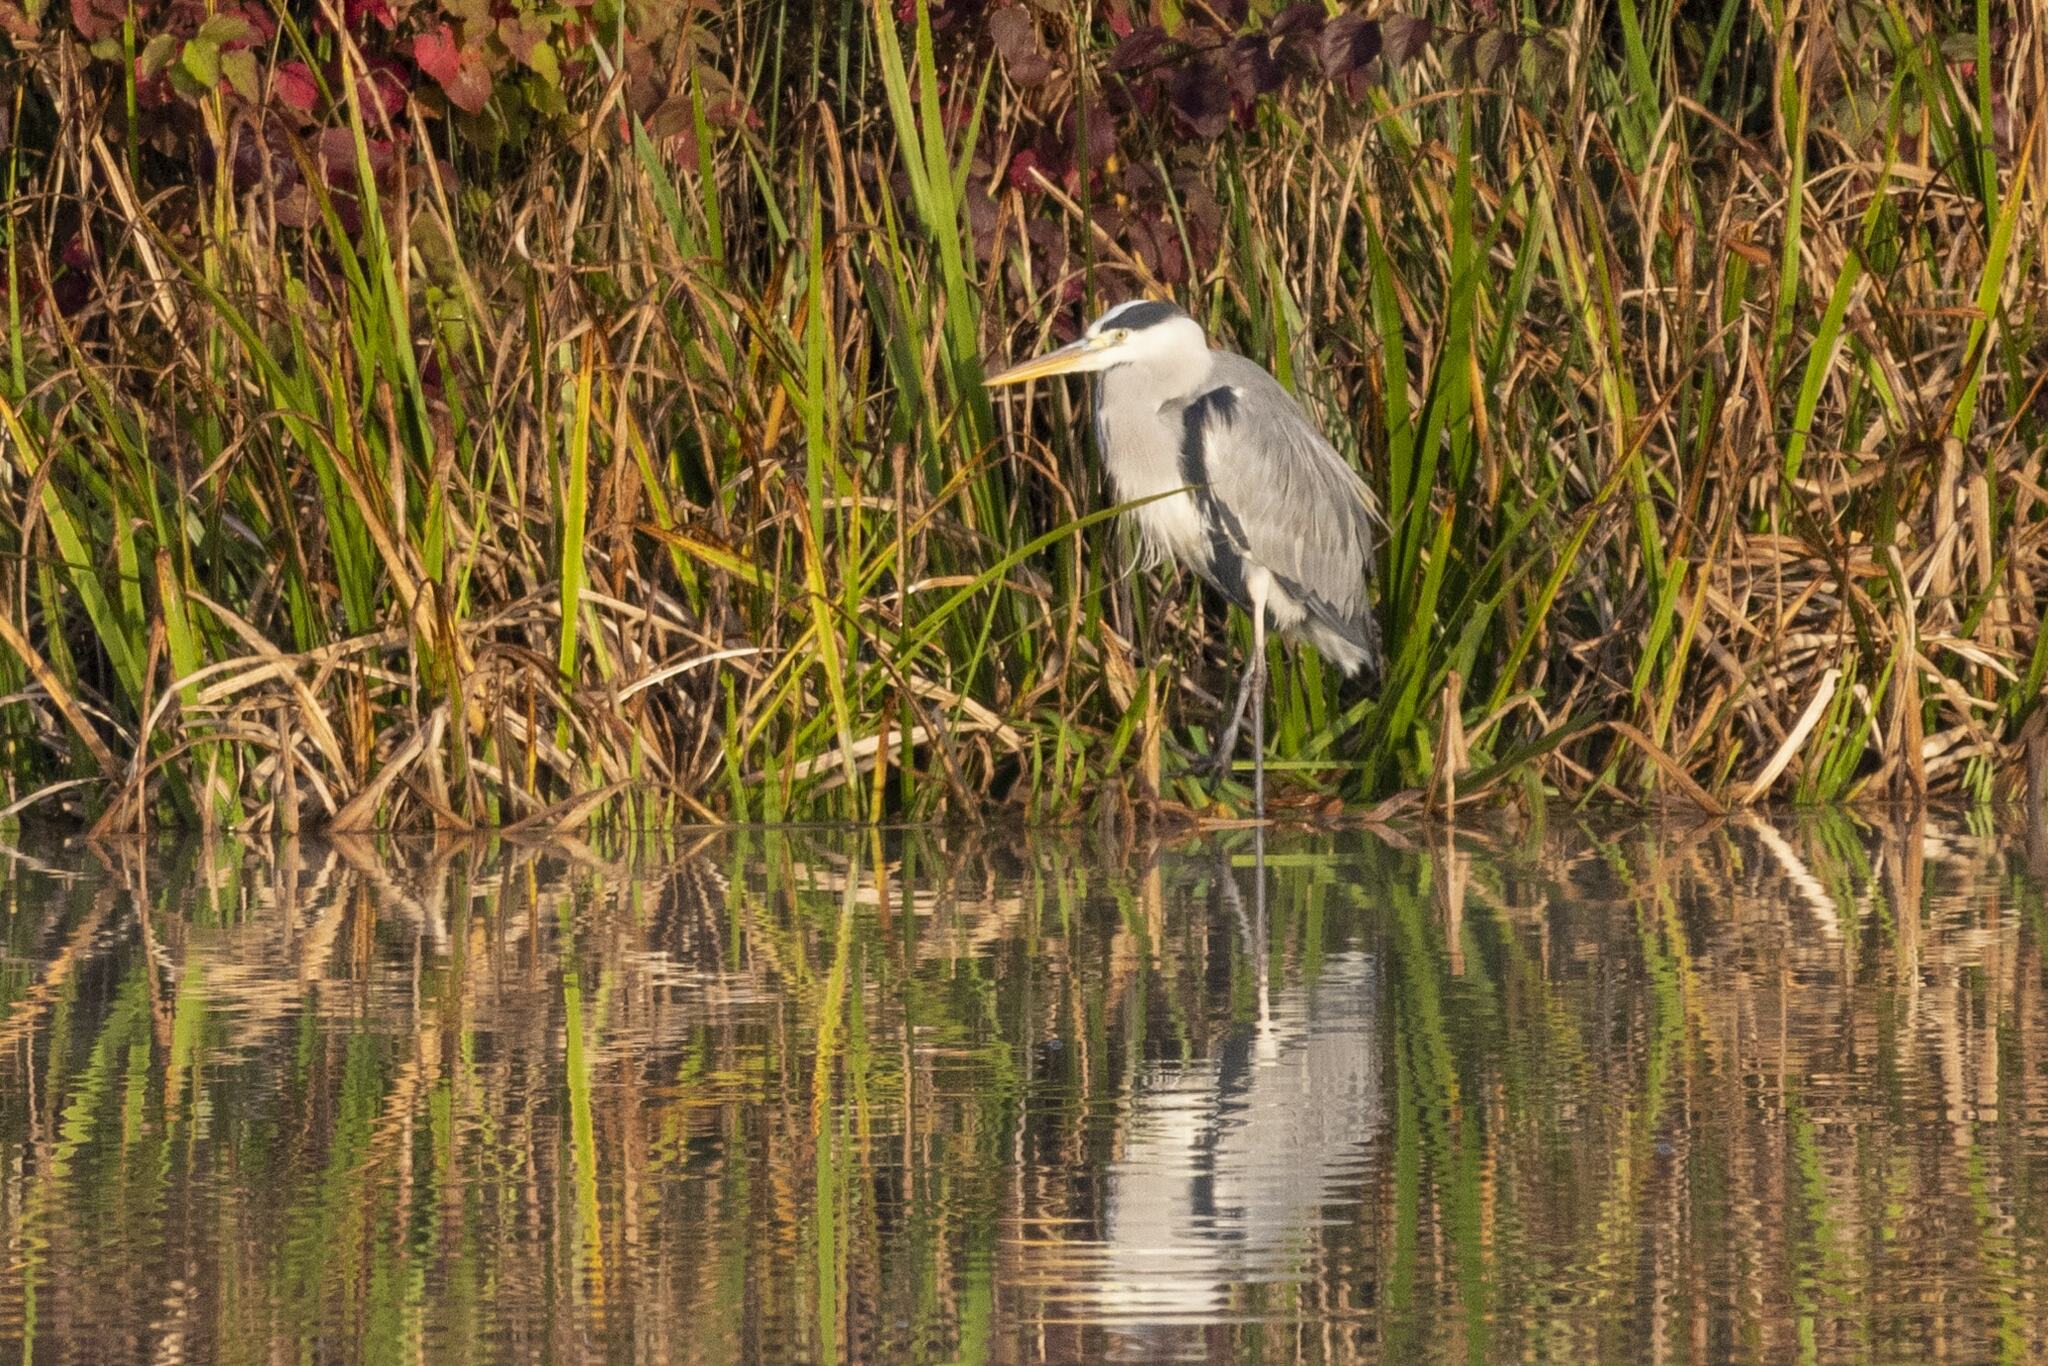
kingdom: Animalia
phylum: Chordata
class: Aves
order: Pelecaniformes
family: Ardeidae
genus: Ardea
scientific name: Ardea cinerea
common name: Grey heron
